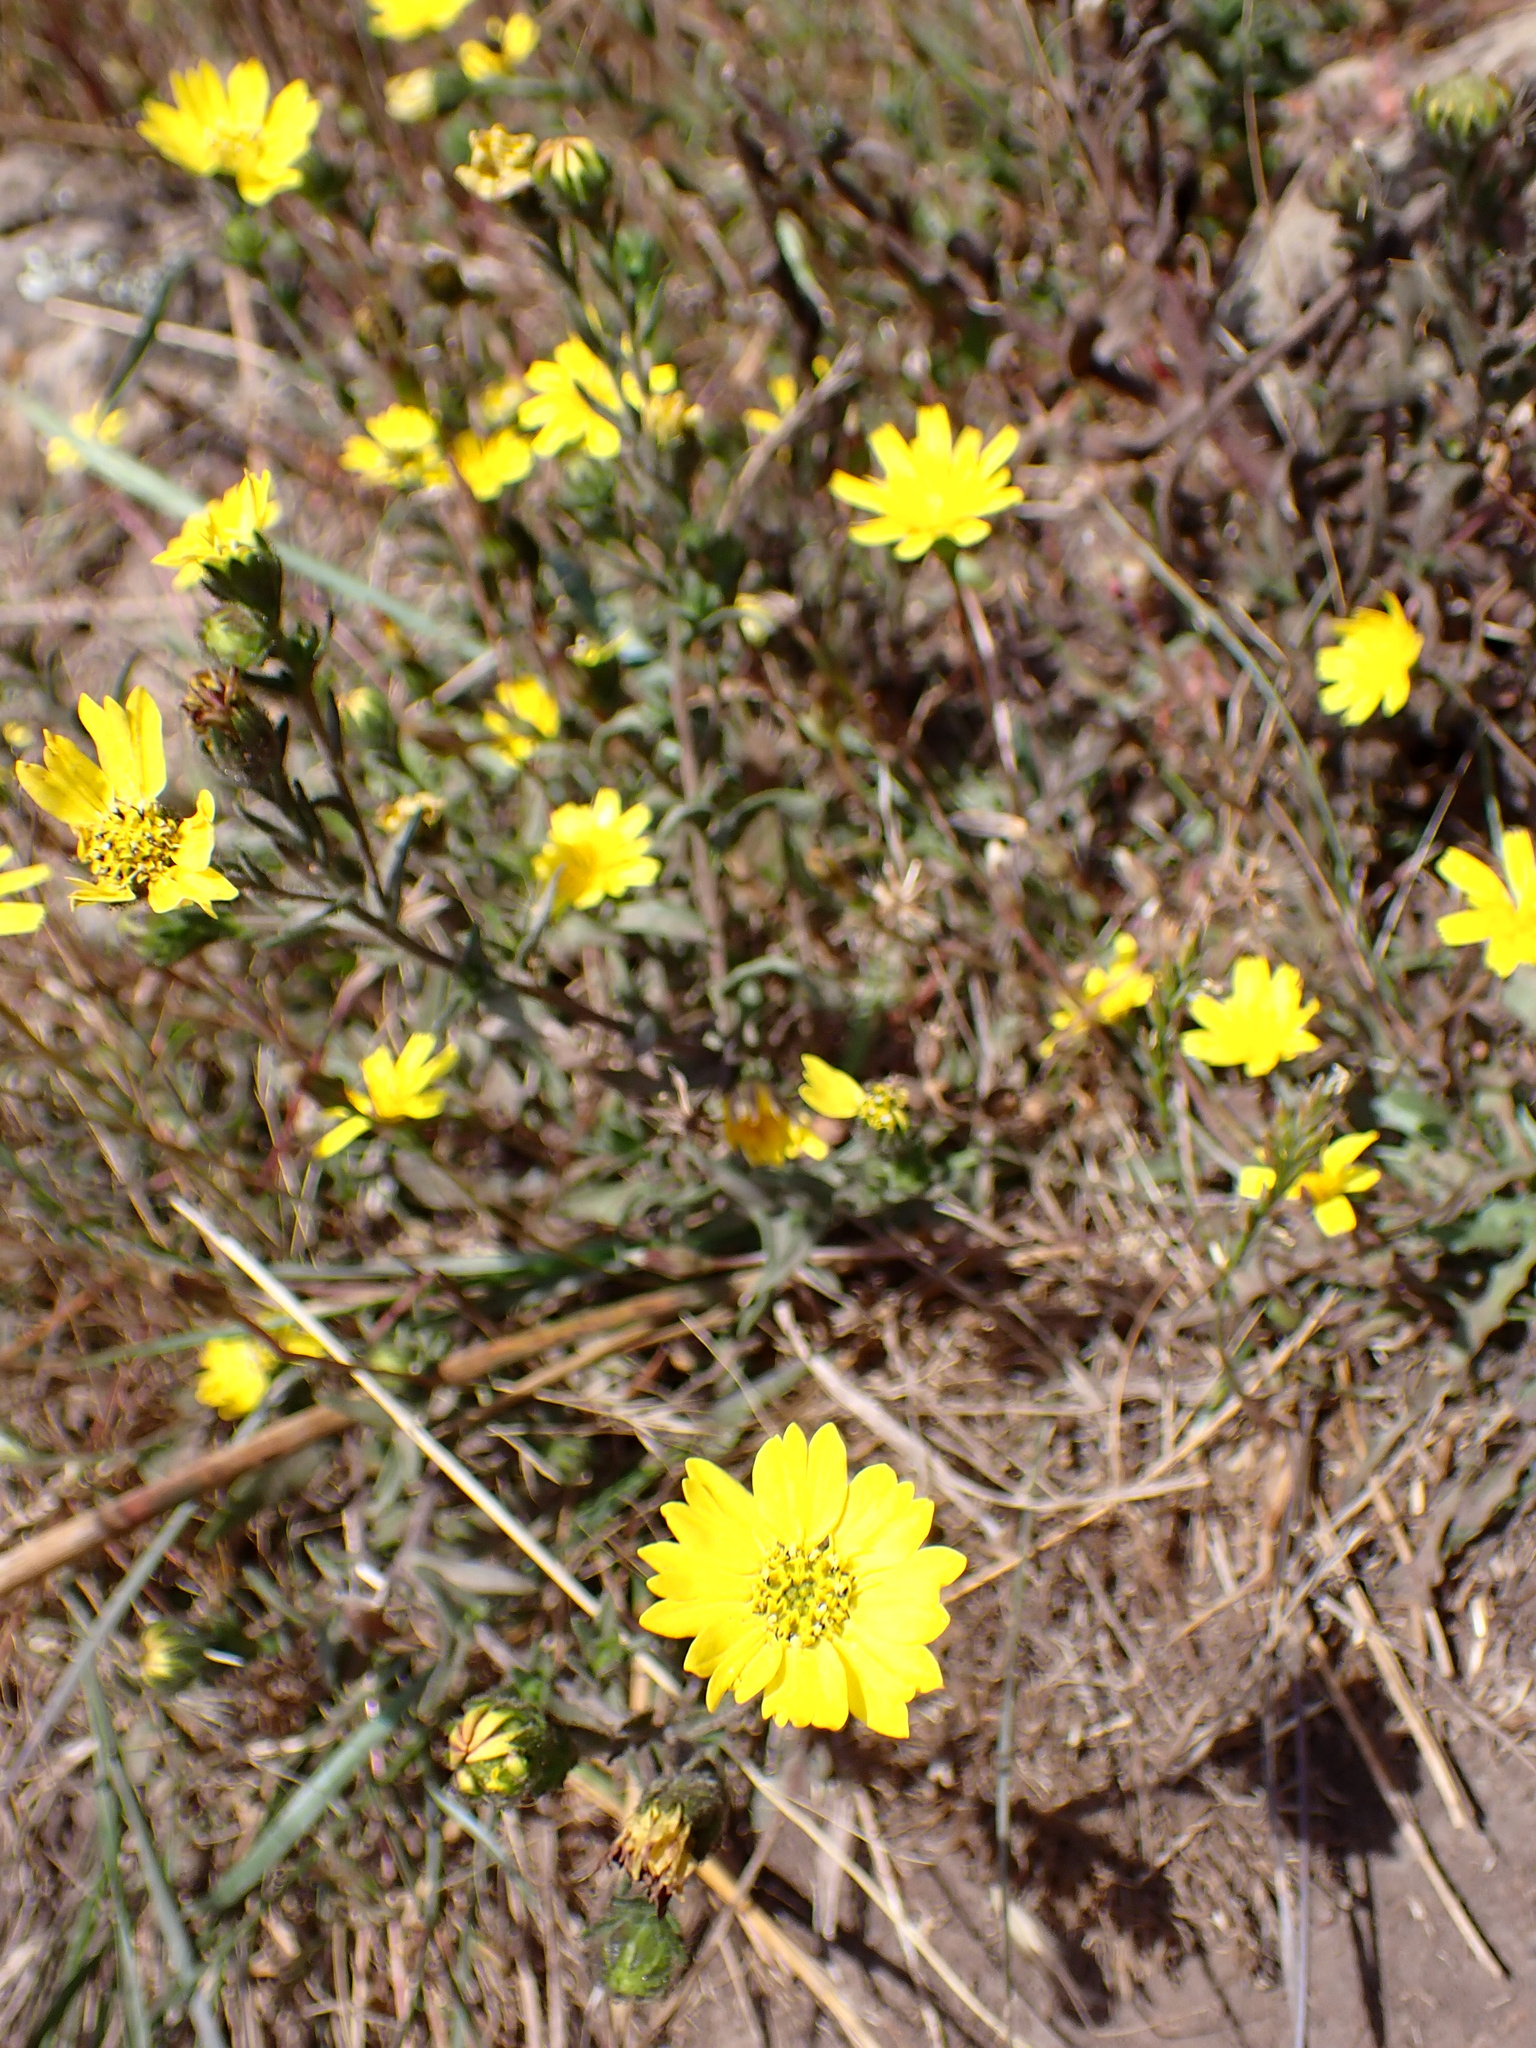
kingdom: Plantae
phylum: Tracheophyta
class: Magnoliopsida
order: Asterales
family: Asteraceae
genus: Deinandra
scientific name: Deinandra corymbosa
